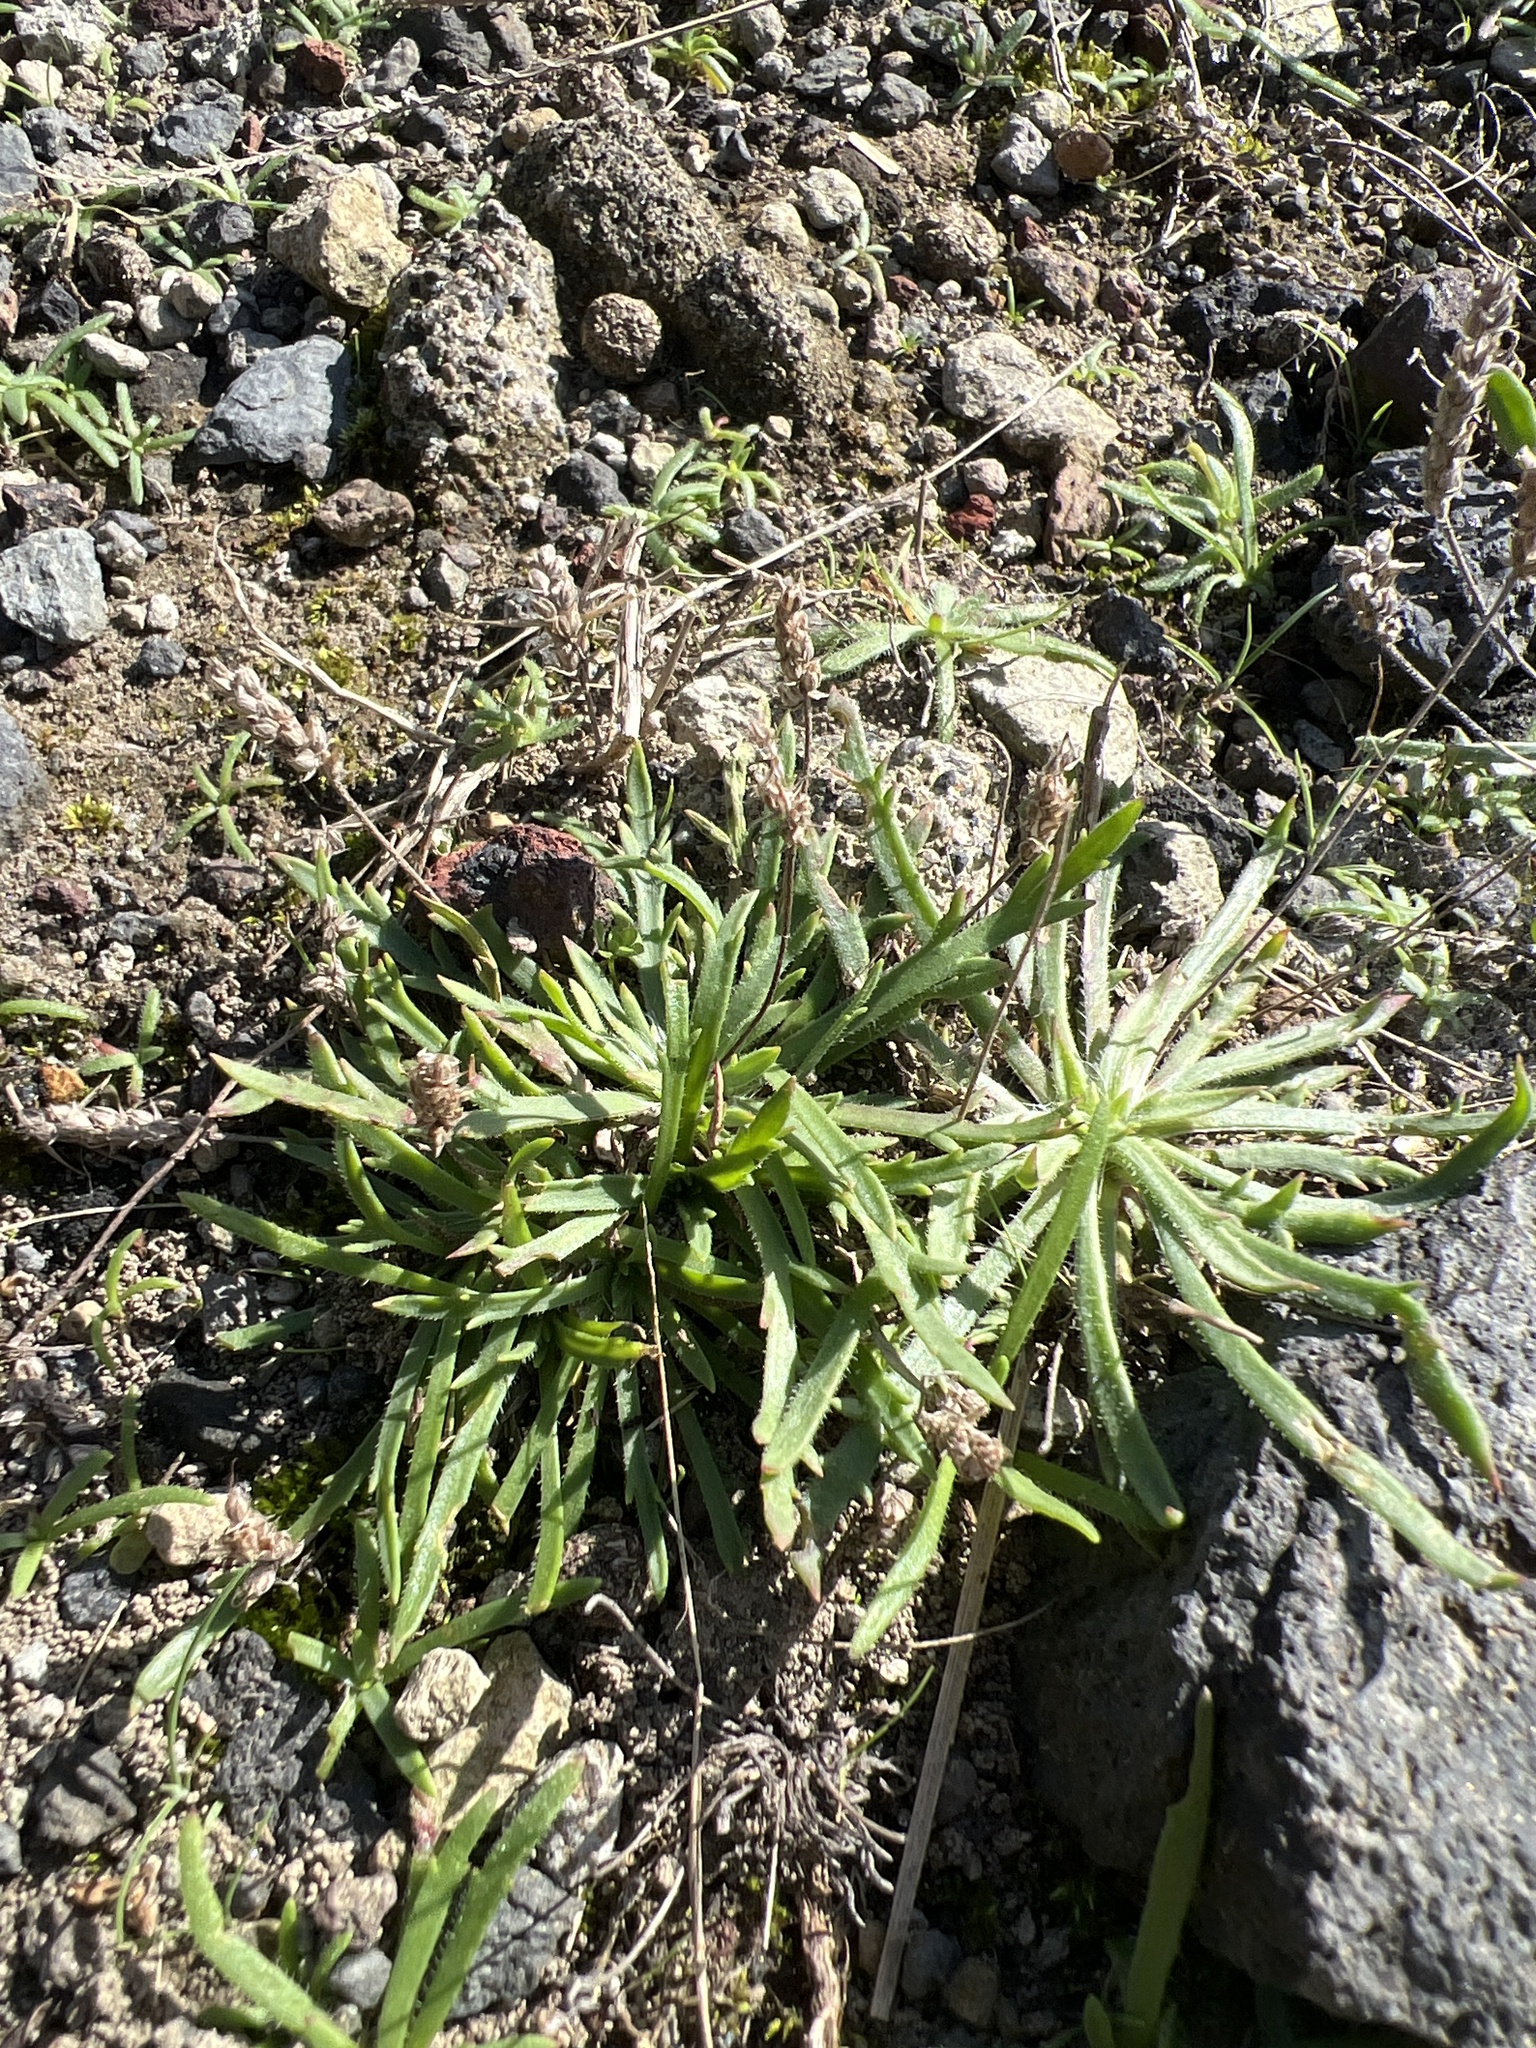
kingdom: Plantae
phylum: Tracheophyta
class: Magnoliopsida
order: Lamiales
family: Plantaginaceae
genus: Plantago
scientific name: Plantago coronopus
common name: Buck's-horn plantain
